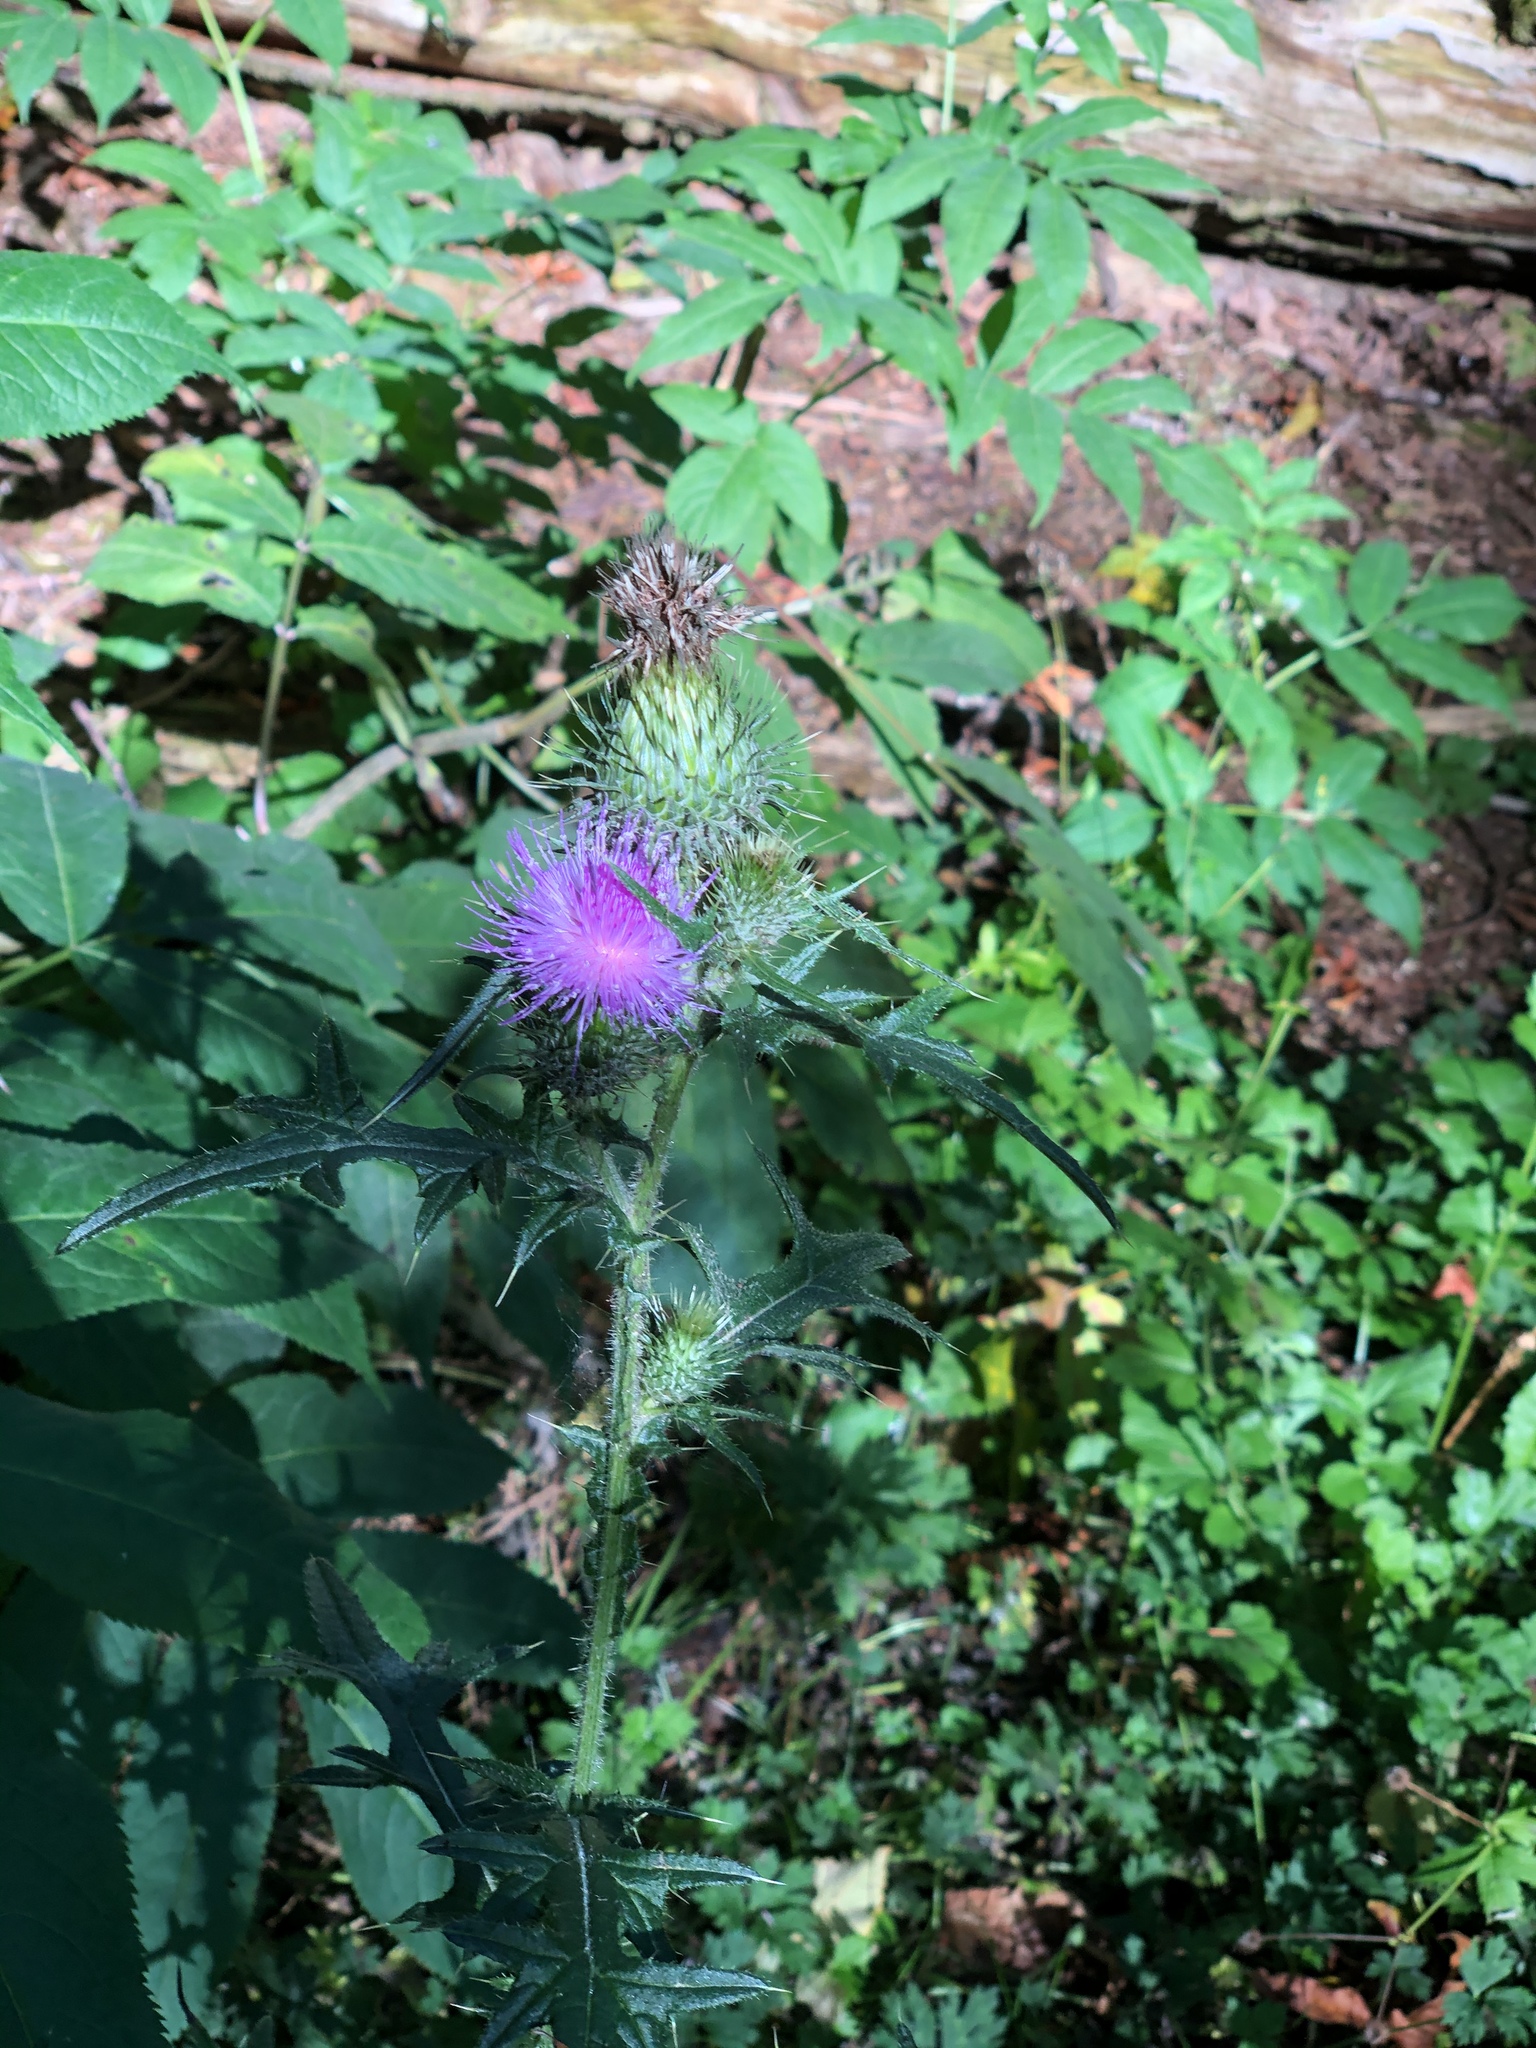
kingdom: Plantae
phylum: Tracheophyta
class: Magnoliopsida
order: Asterales
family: Asteraceae
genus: Cirsium
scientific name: Cirsium vulgare
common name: Bull thistle
